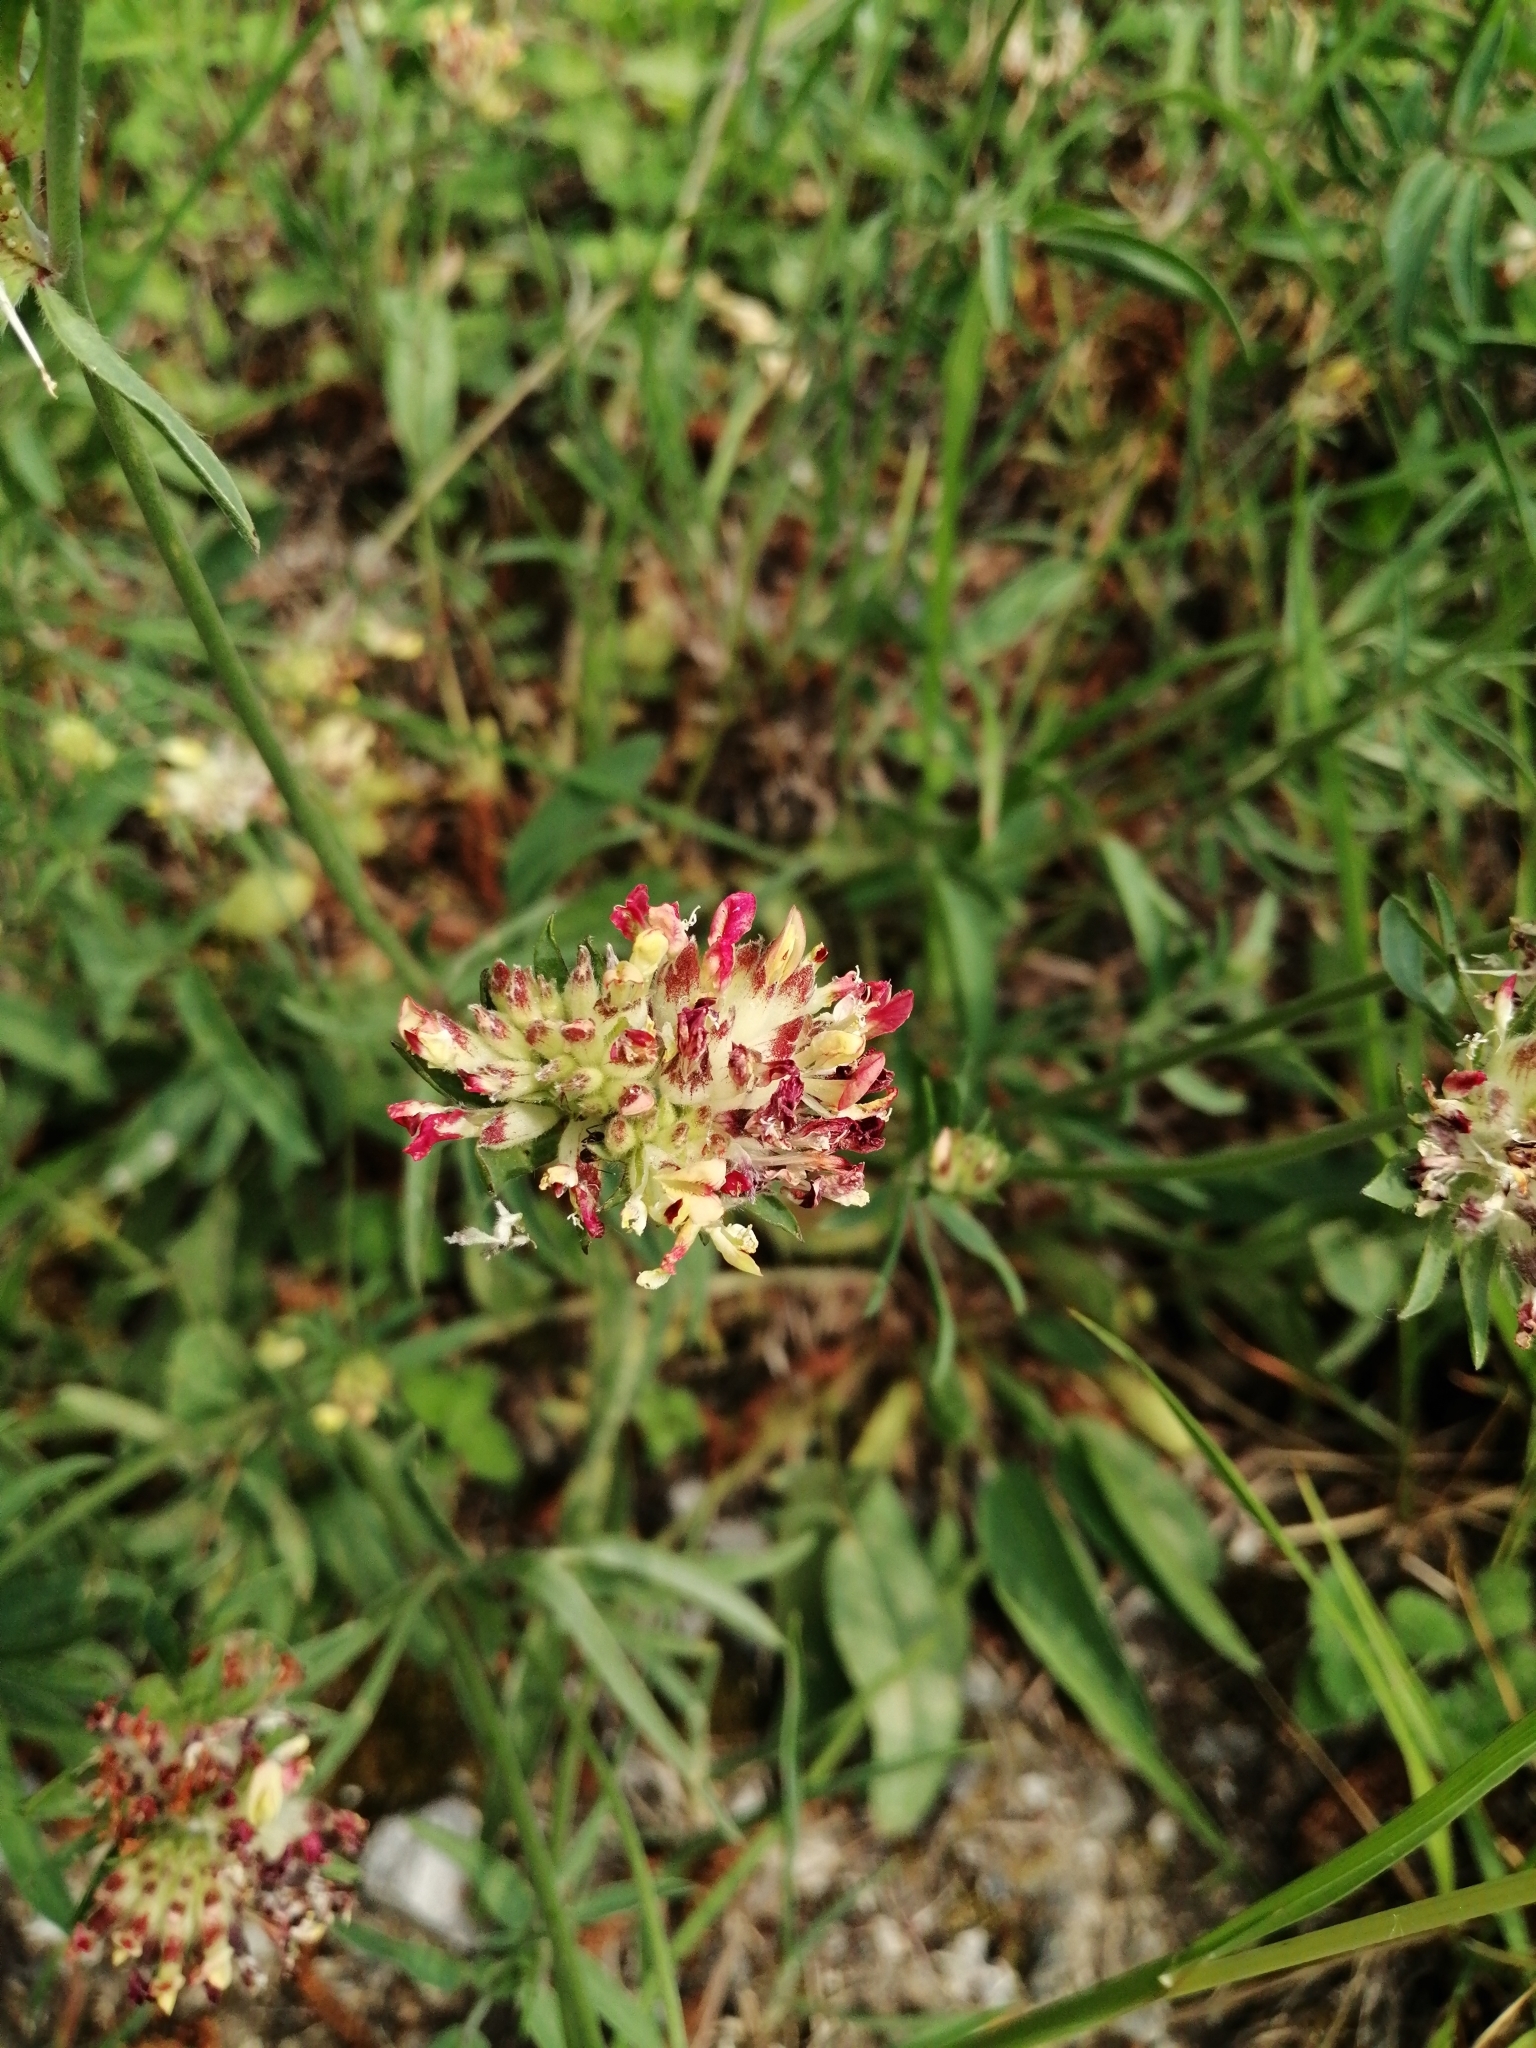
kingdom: Plantae
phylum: Tracheophyta
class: Magnoliopsida
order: Fabales
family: Fabaceae
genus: Anthyllis
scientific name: Anthyllis vulneraria
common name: Kidney vetch
